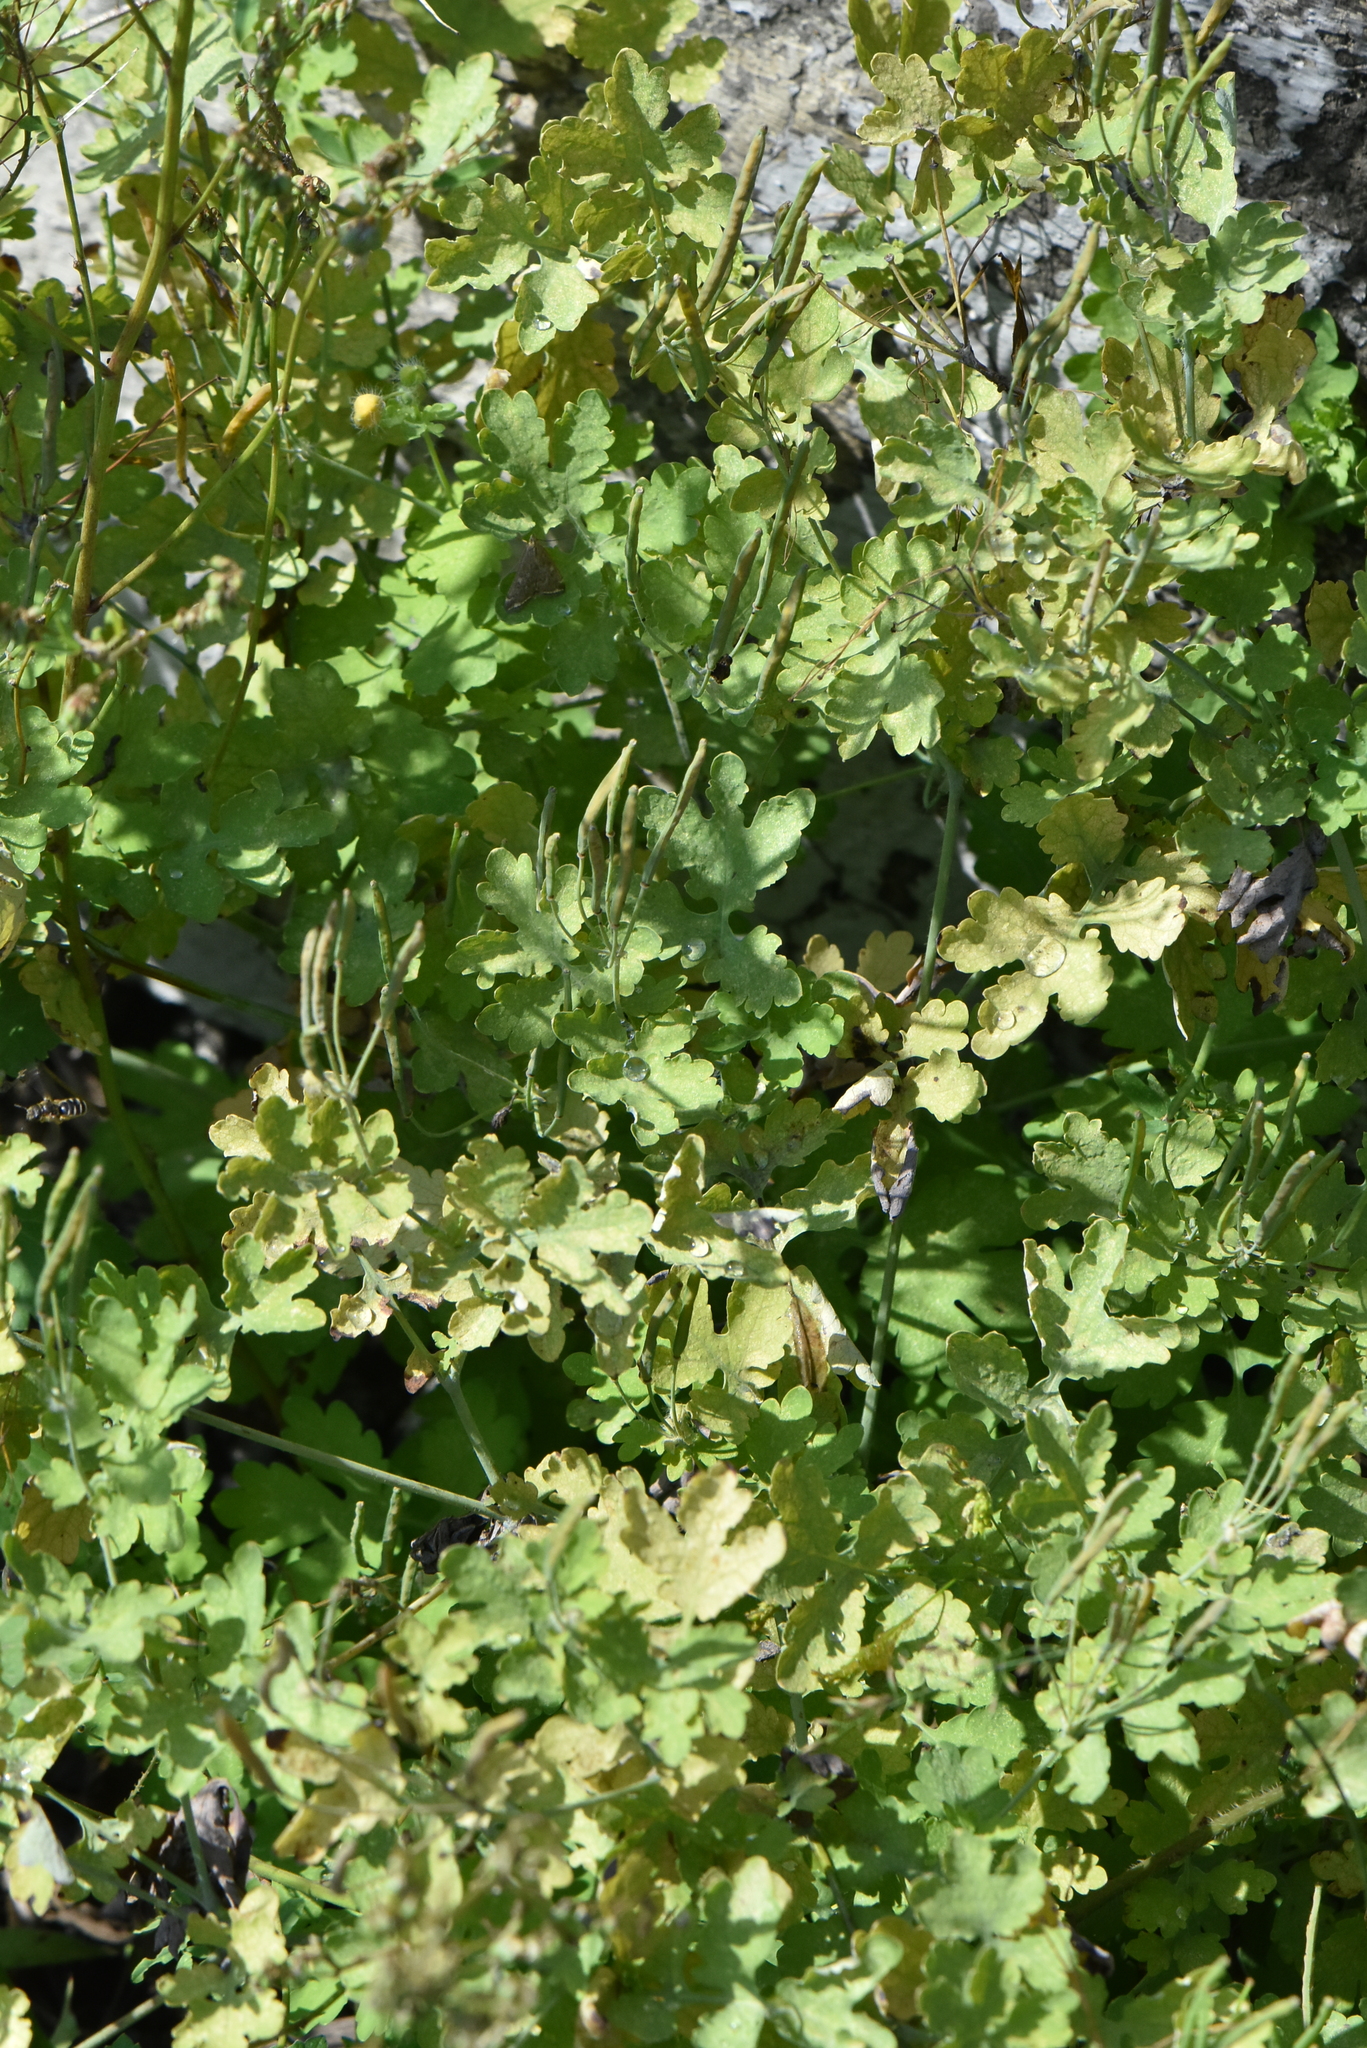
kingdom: Plantae
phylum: Tracheophyta
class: Magnoliopsida
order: Ranunculales
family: Papaveraceae
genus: Chelidonium
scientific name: Chelidonium majus
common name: Greater celandine
